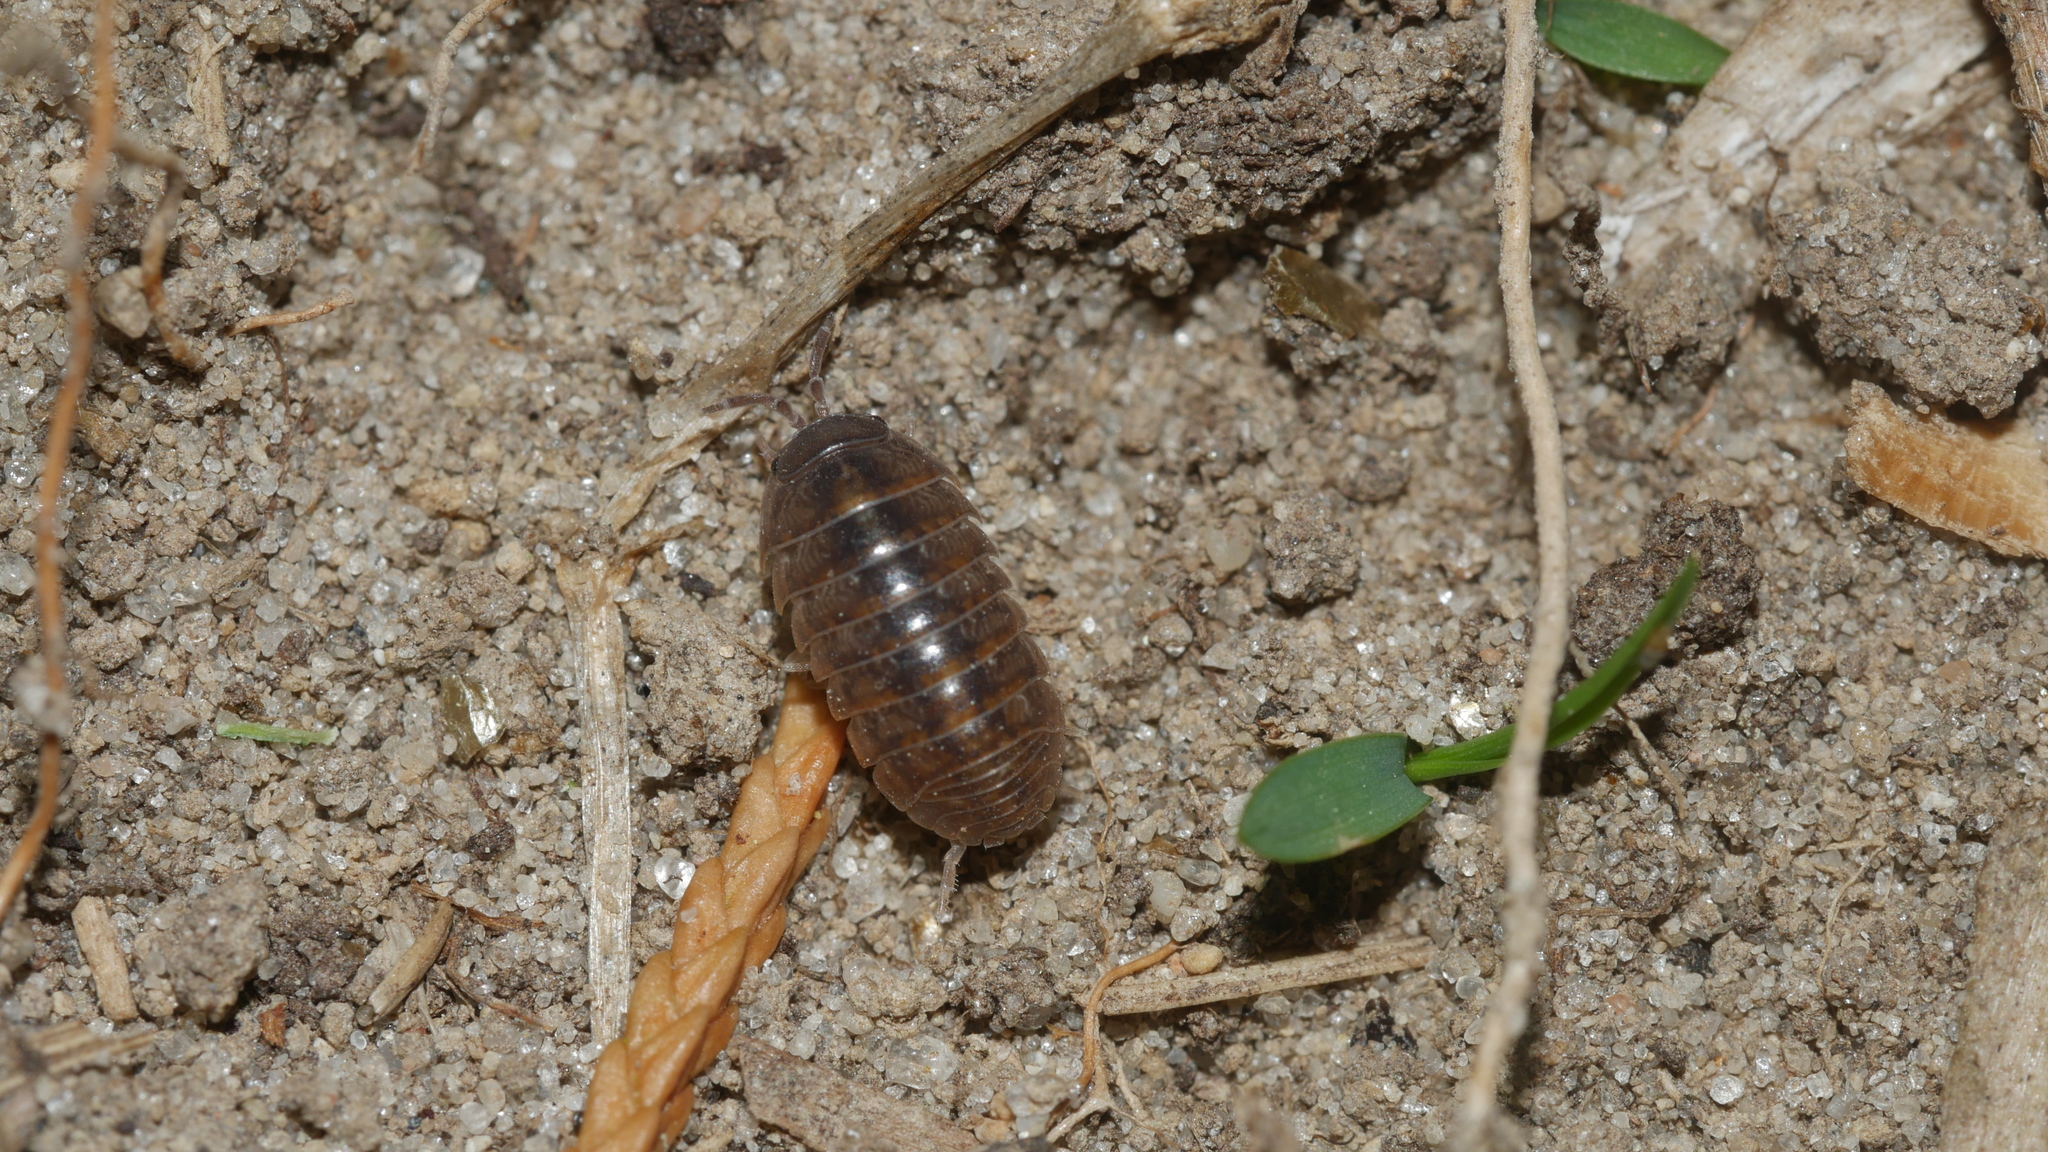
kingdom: Animalia
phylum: Arthropoda
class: Malacostraca
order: Isopoda
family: Armadillidiidae
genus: Armadillidium
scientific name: Armadillidium vulgare
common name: Common pill woodlouse
